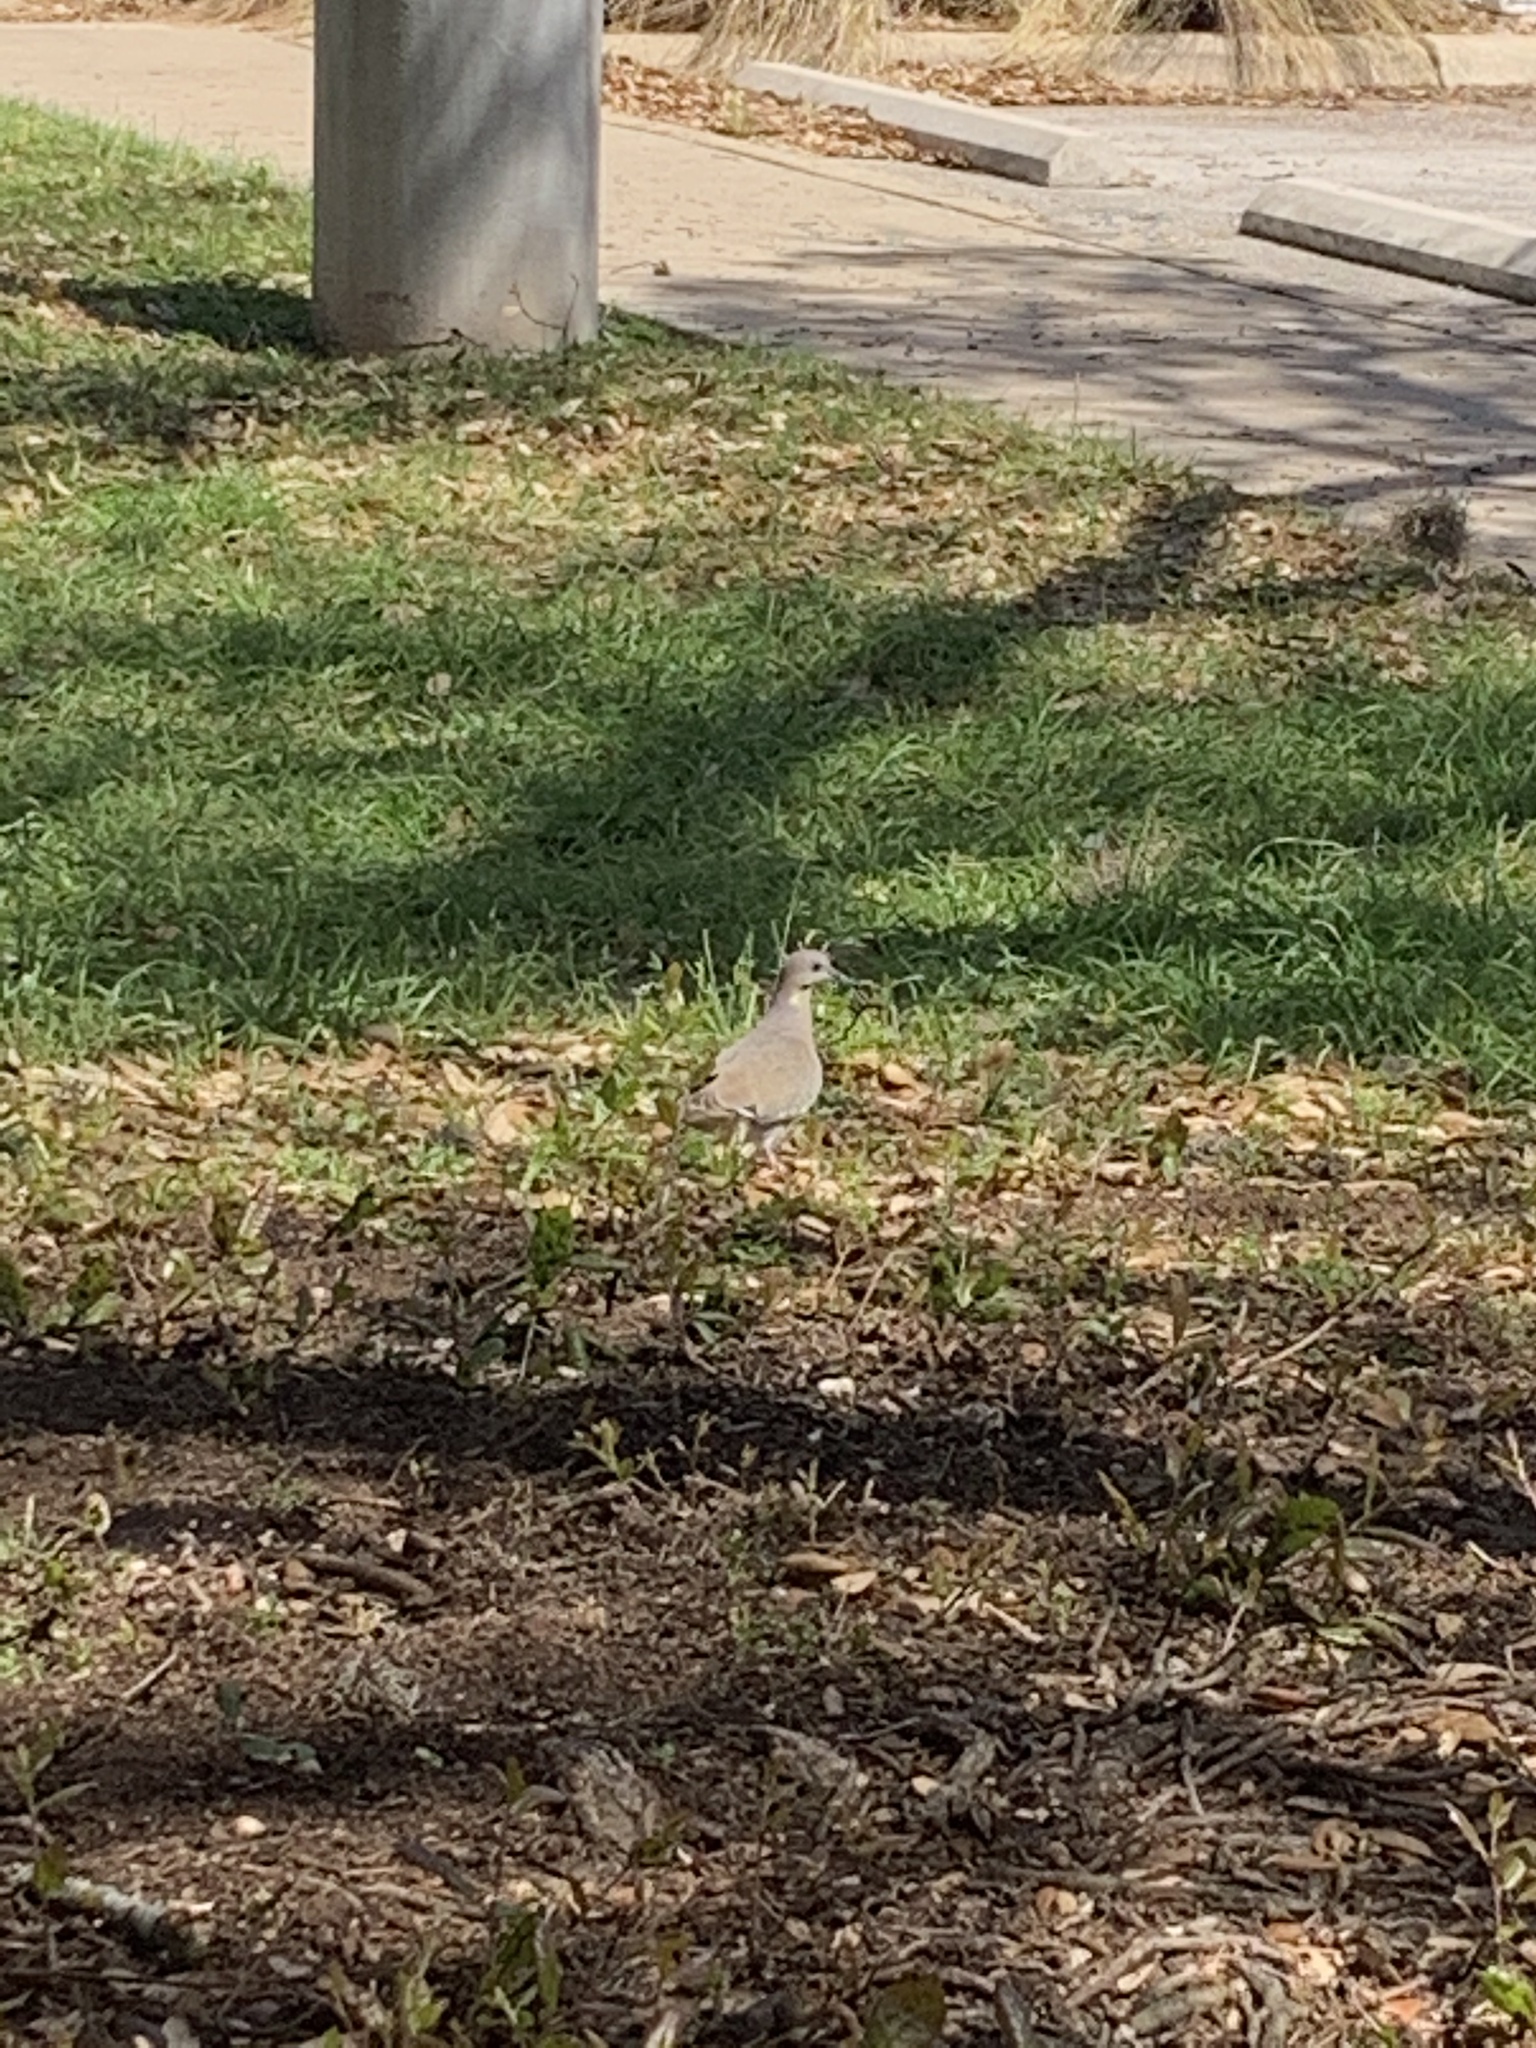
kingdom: Animalia
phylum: Chordata
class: Aves
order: Columbiformes
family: Columbidae
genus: Zenaida
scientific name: Zenaida asiatica
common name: White-winged dove
